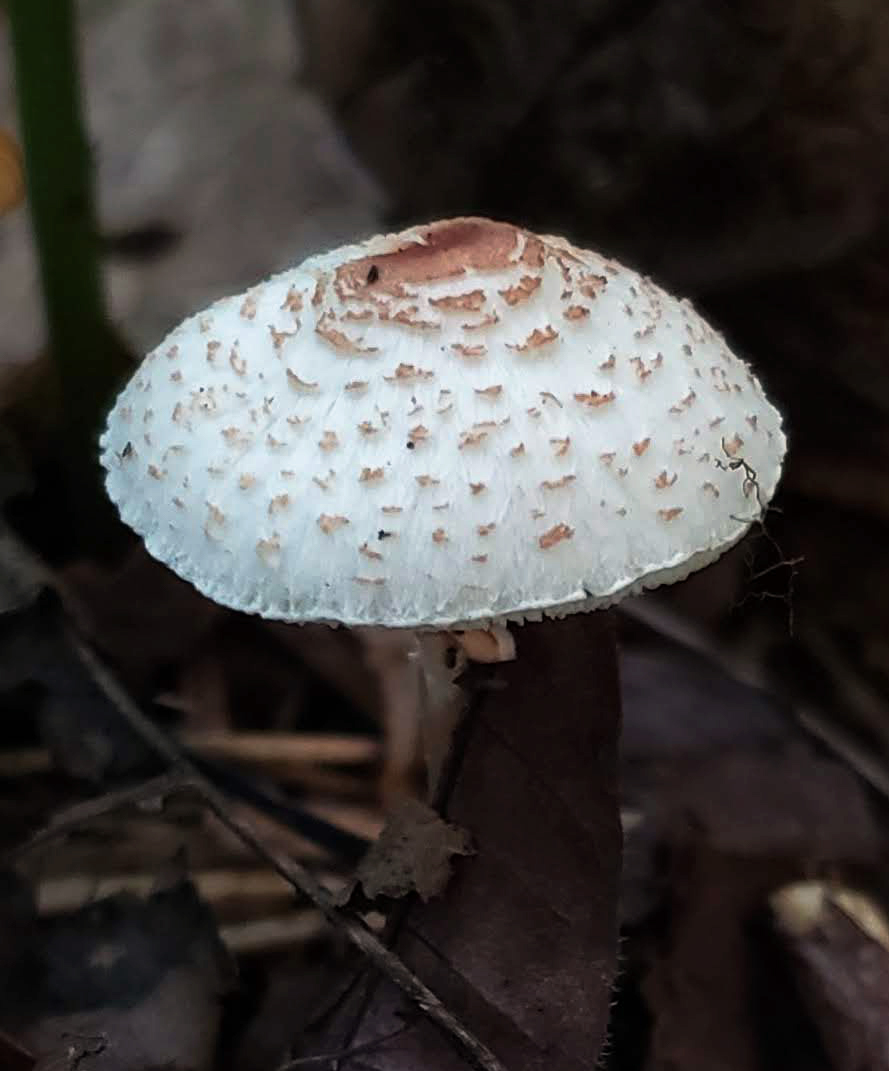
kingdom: Fungi
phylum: Basidiomycota
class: Agaricomycetes
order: Agaricales
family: Agaricaceae
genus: Lepiota
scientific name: Lepiota cristata
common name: Stinking dapperling
